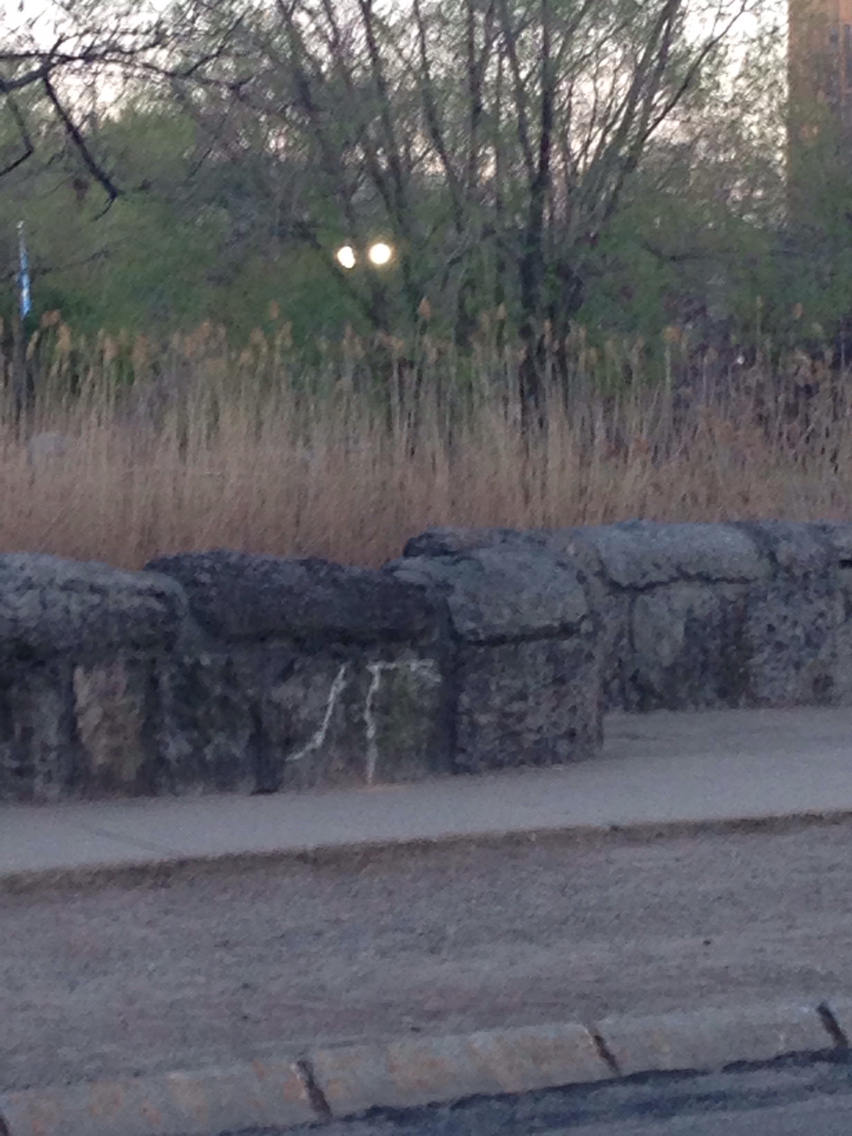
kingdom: Plantae
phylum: Tracheophyta
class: Liliopsida
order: Poales
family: Poaceae
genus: Phragmites
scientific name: Phragmites australis
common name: Common reed
